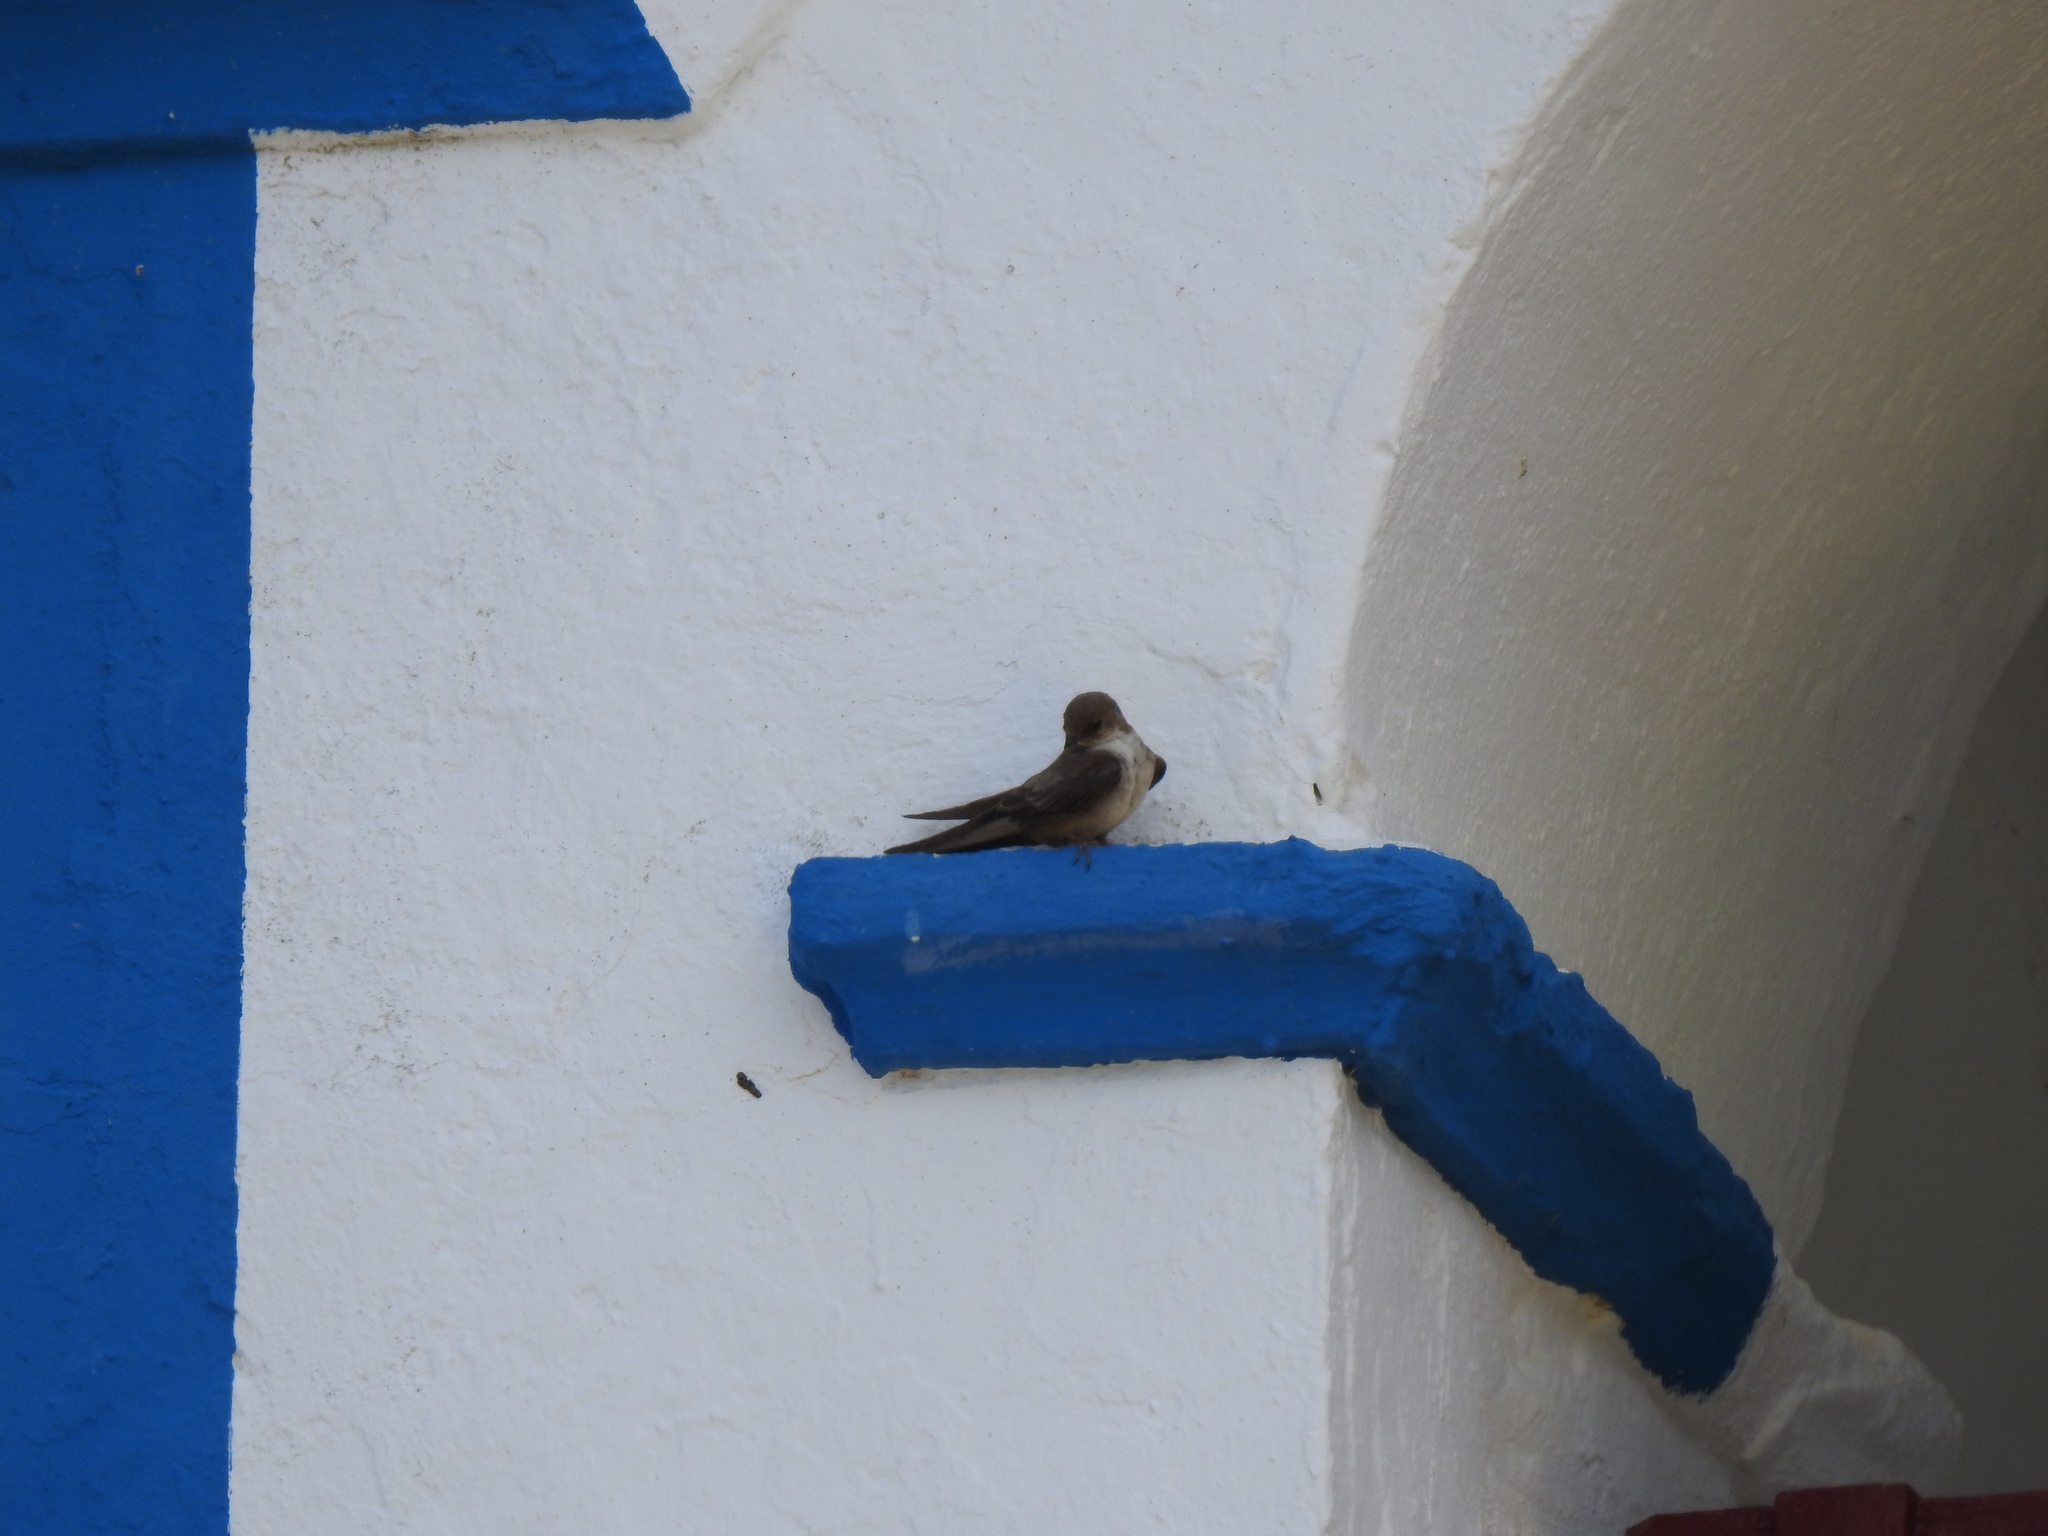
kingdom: Animalia
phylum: Chordata
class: Aves
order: Passeriformes
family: Hirundinidae
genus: Ptyonoprogne
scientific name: Ptyonoprogne rupestris
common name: Eurasian crag martin
